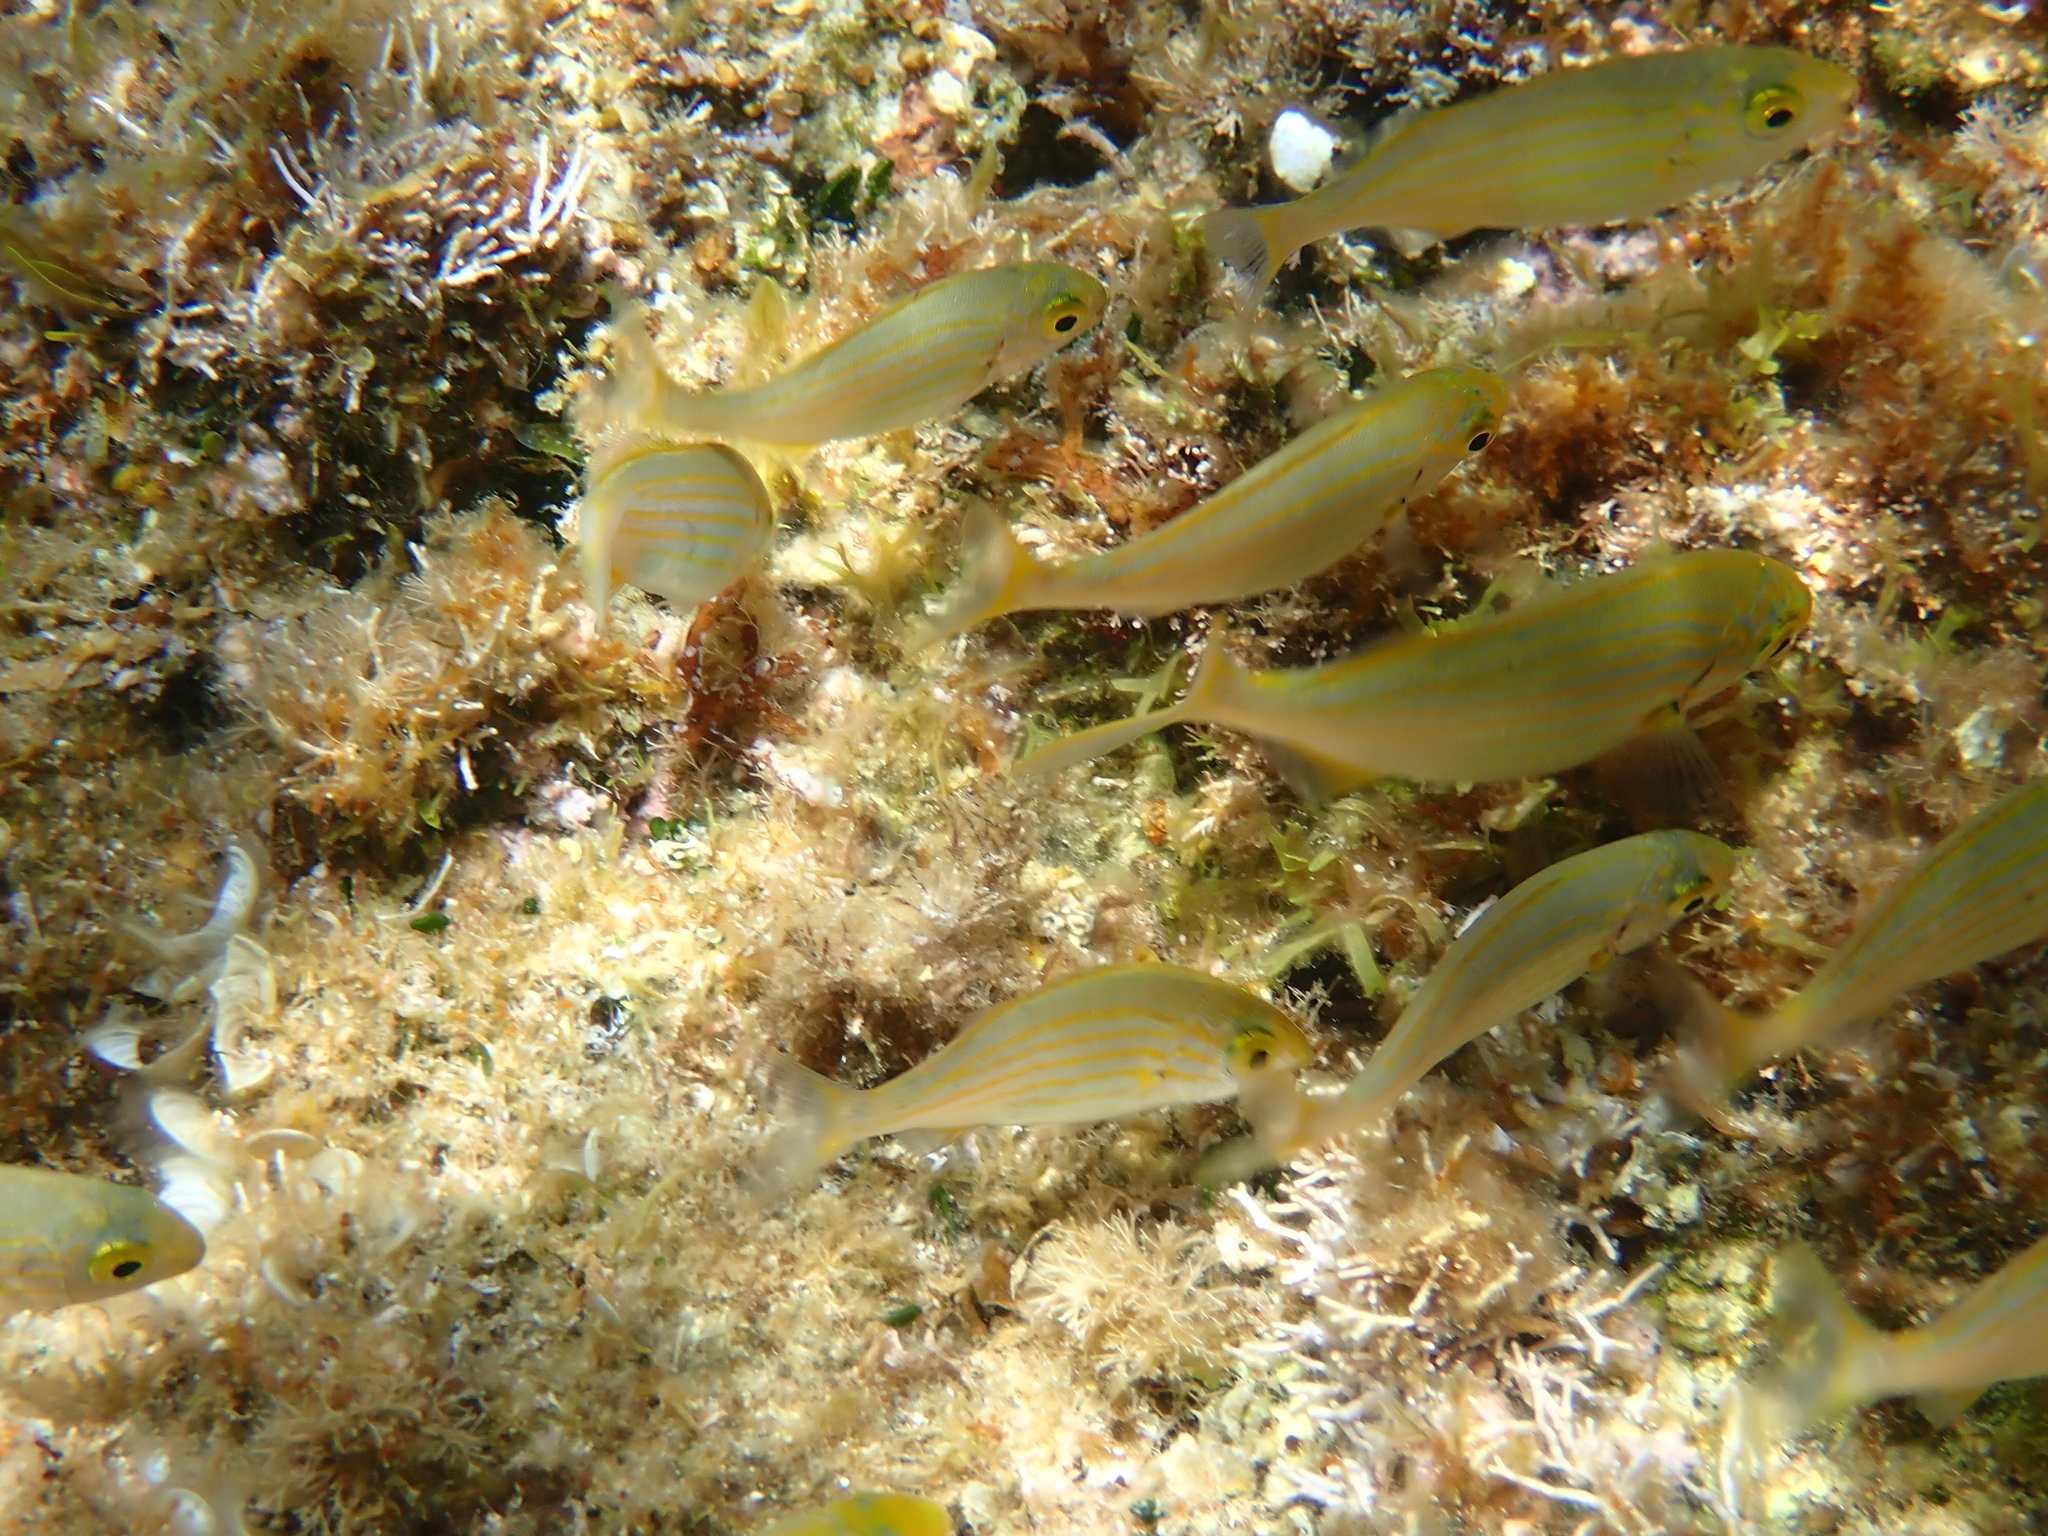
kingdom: Animalia
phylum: Chordata
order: Perciformes
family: Sparidae
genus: Sarpa
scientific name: Sarpa salpa
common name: Salema
